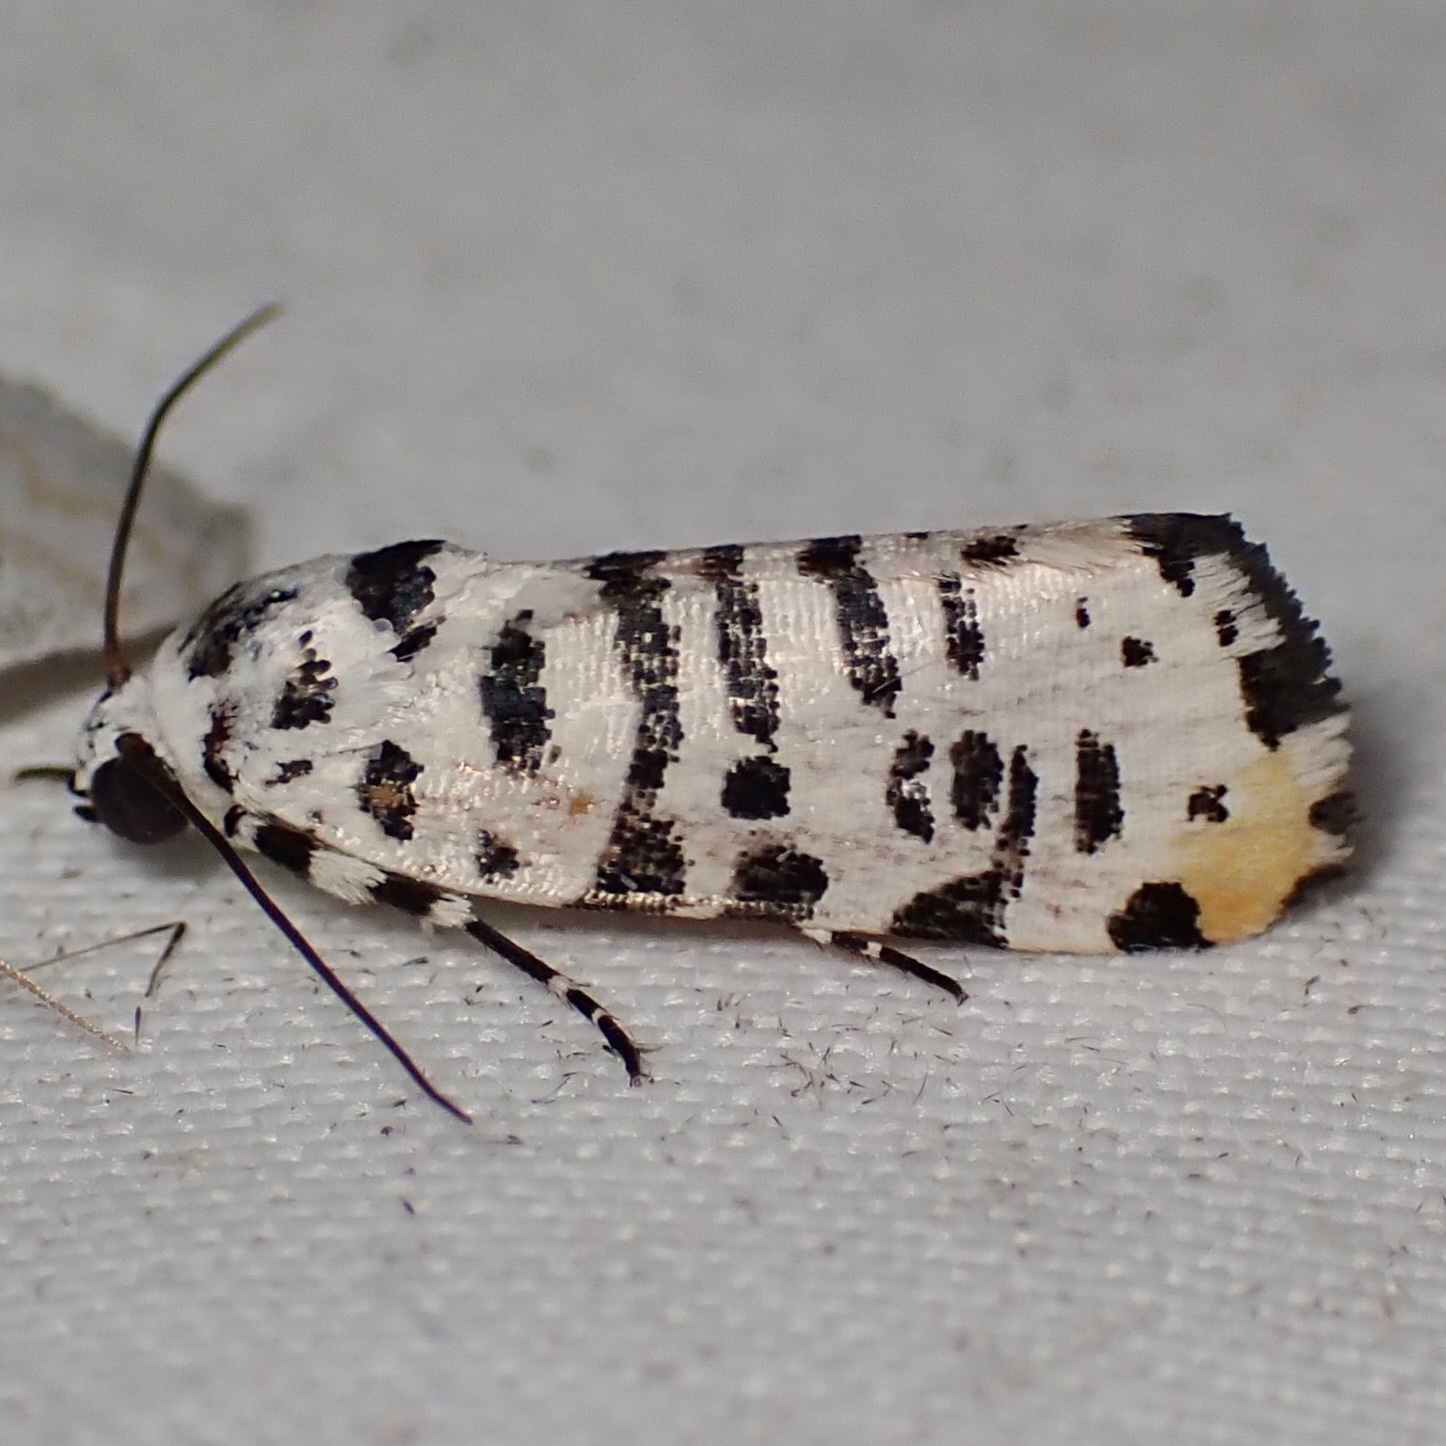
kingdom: Animalia
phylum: Arthropoda
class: Insecta
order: Lepidoptera
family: Noctuidae
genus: Acontia
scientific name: Acontia idella
